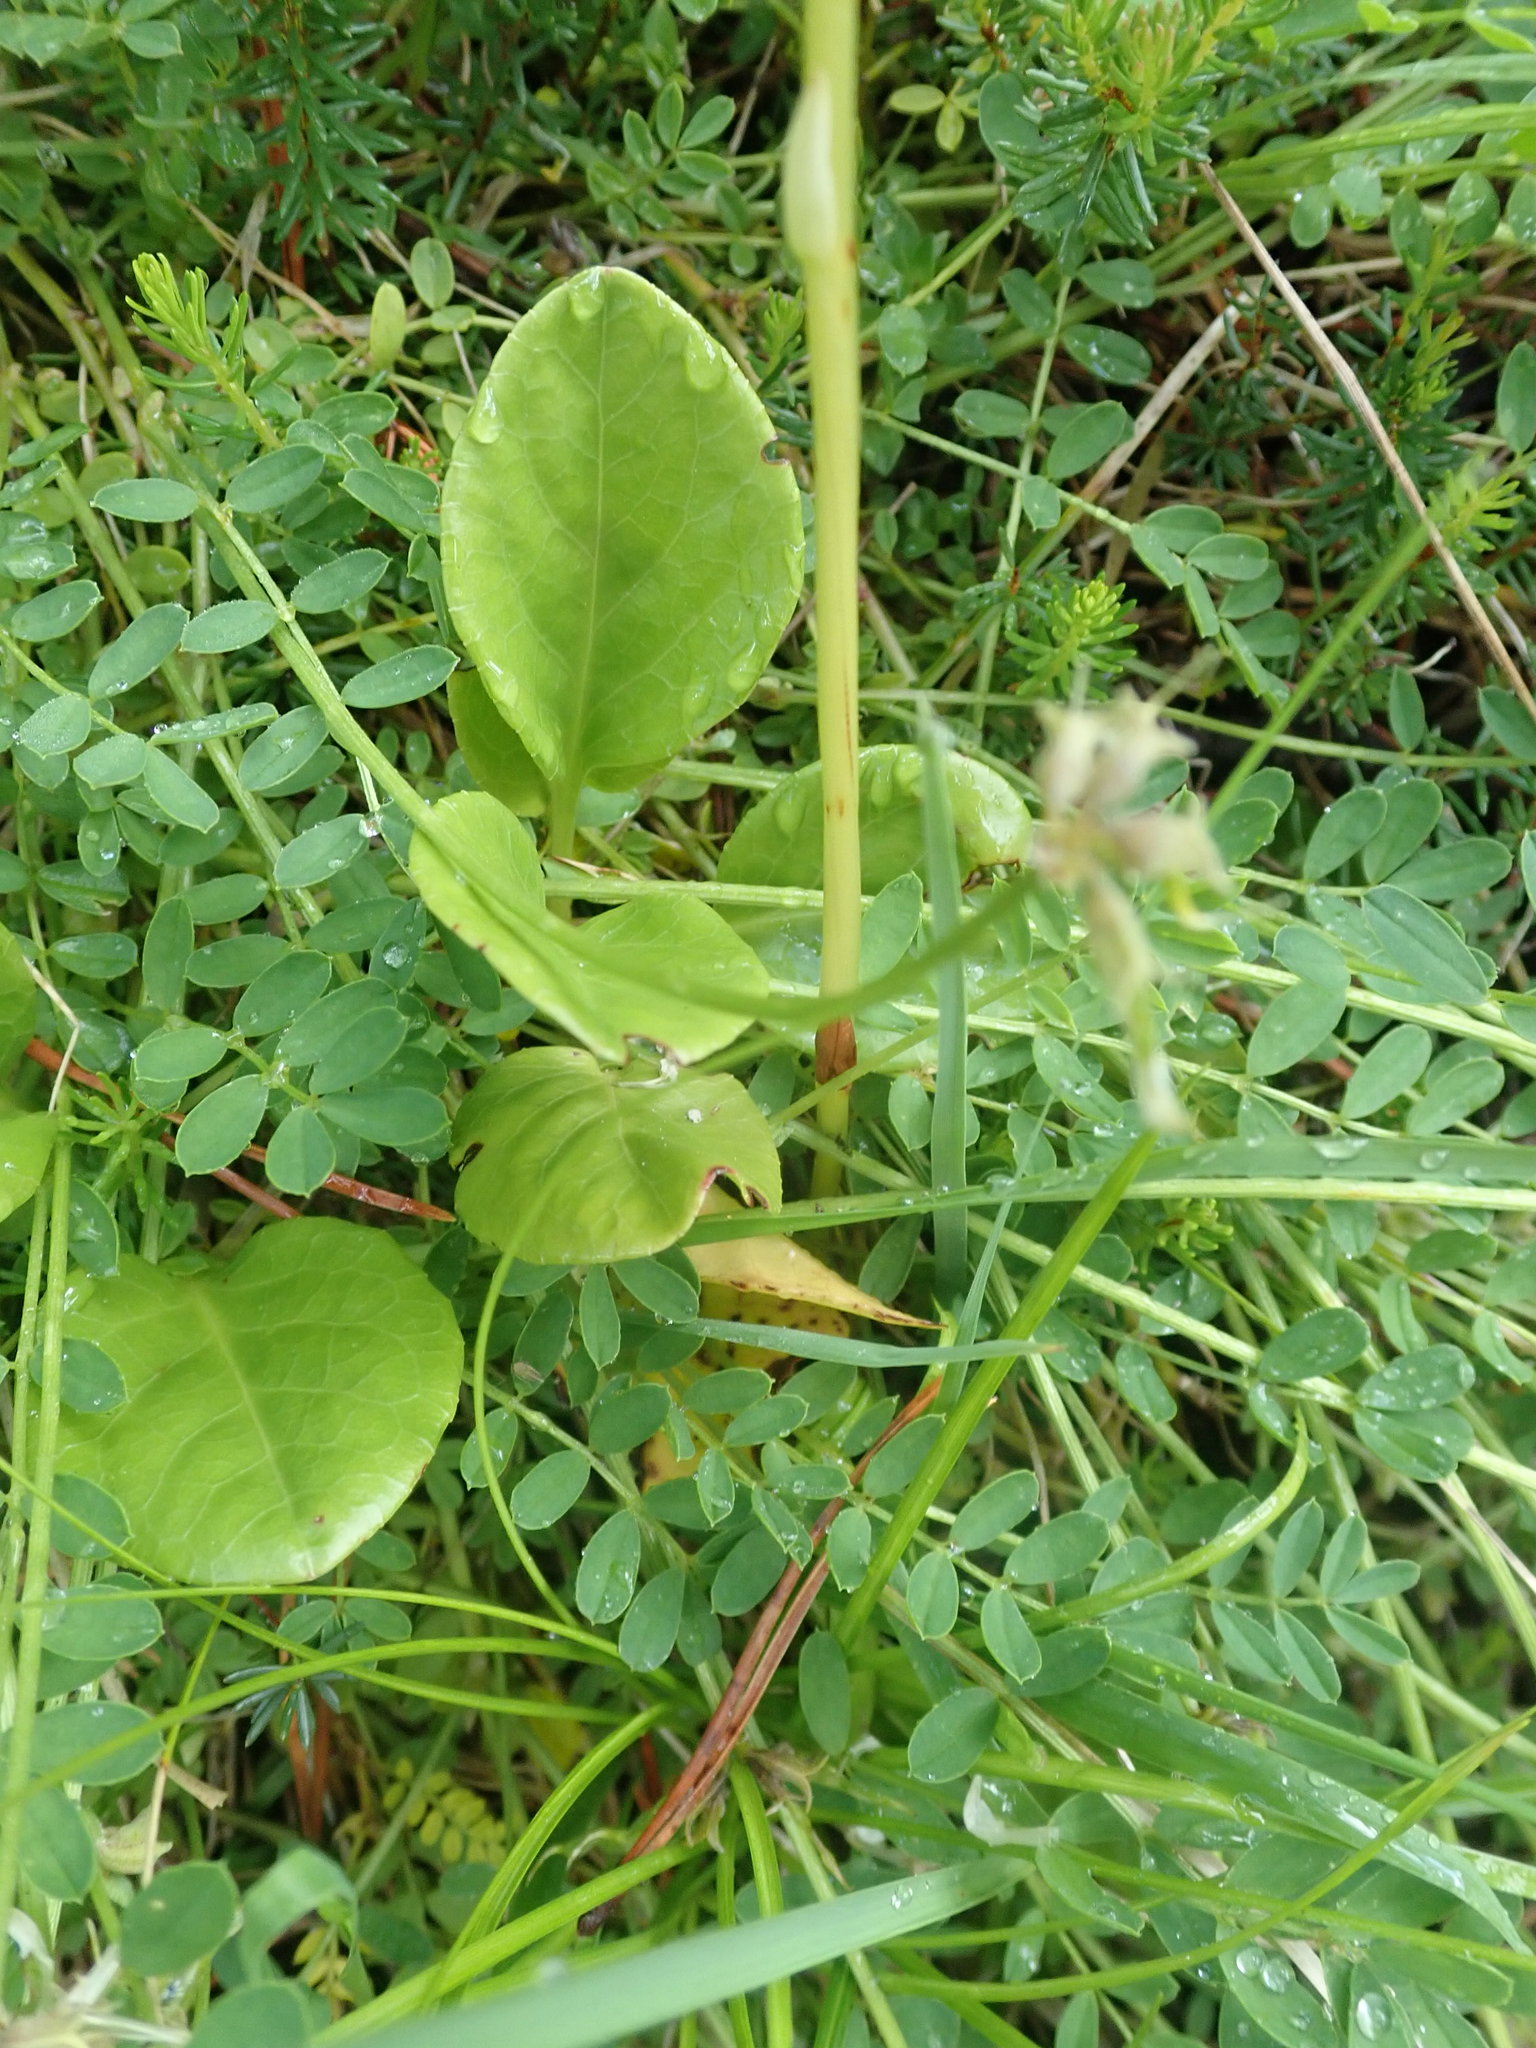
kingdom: Plantae
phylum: Tracheophyta
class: Magnoliopsida
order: Ericales
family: Ericaceae
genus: Pyrola
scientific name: Pyrola rotundifolia
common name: Round-leaved wintergreen
